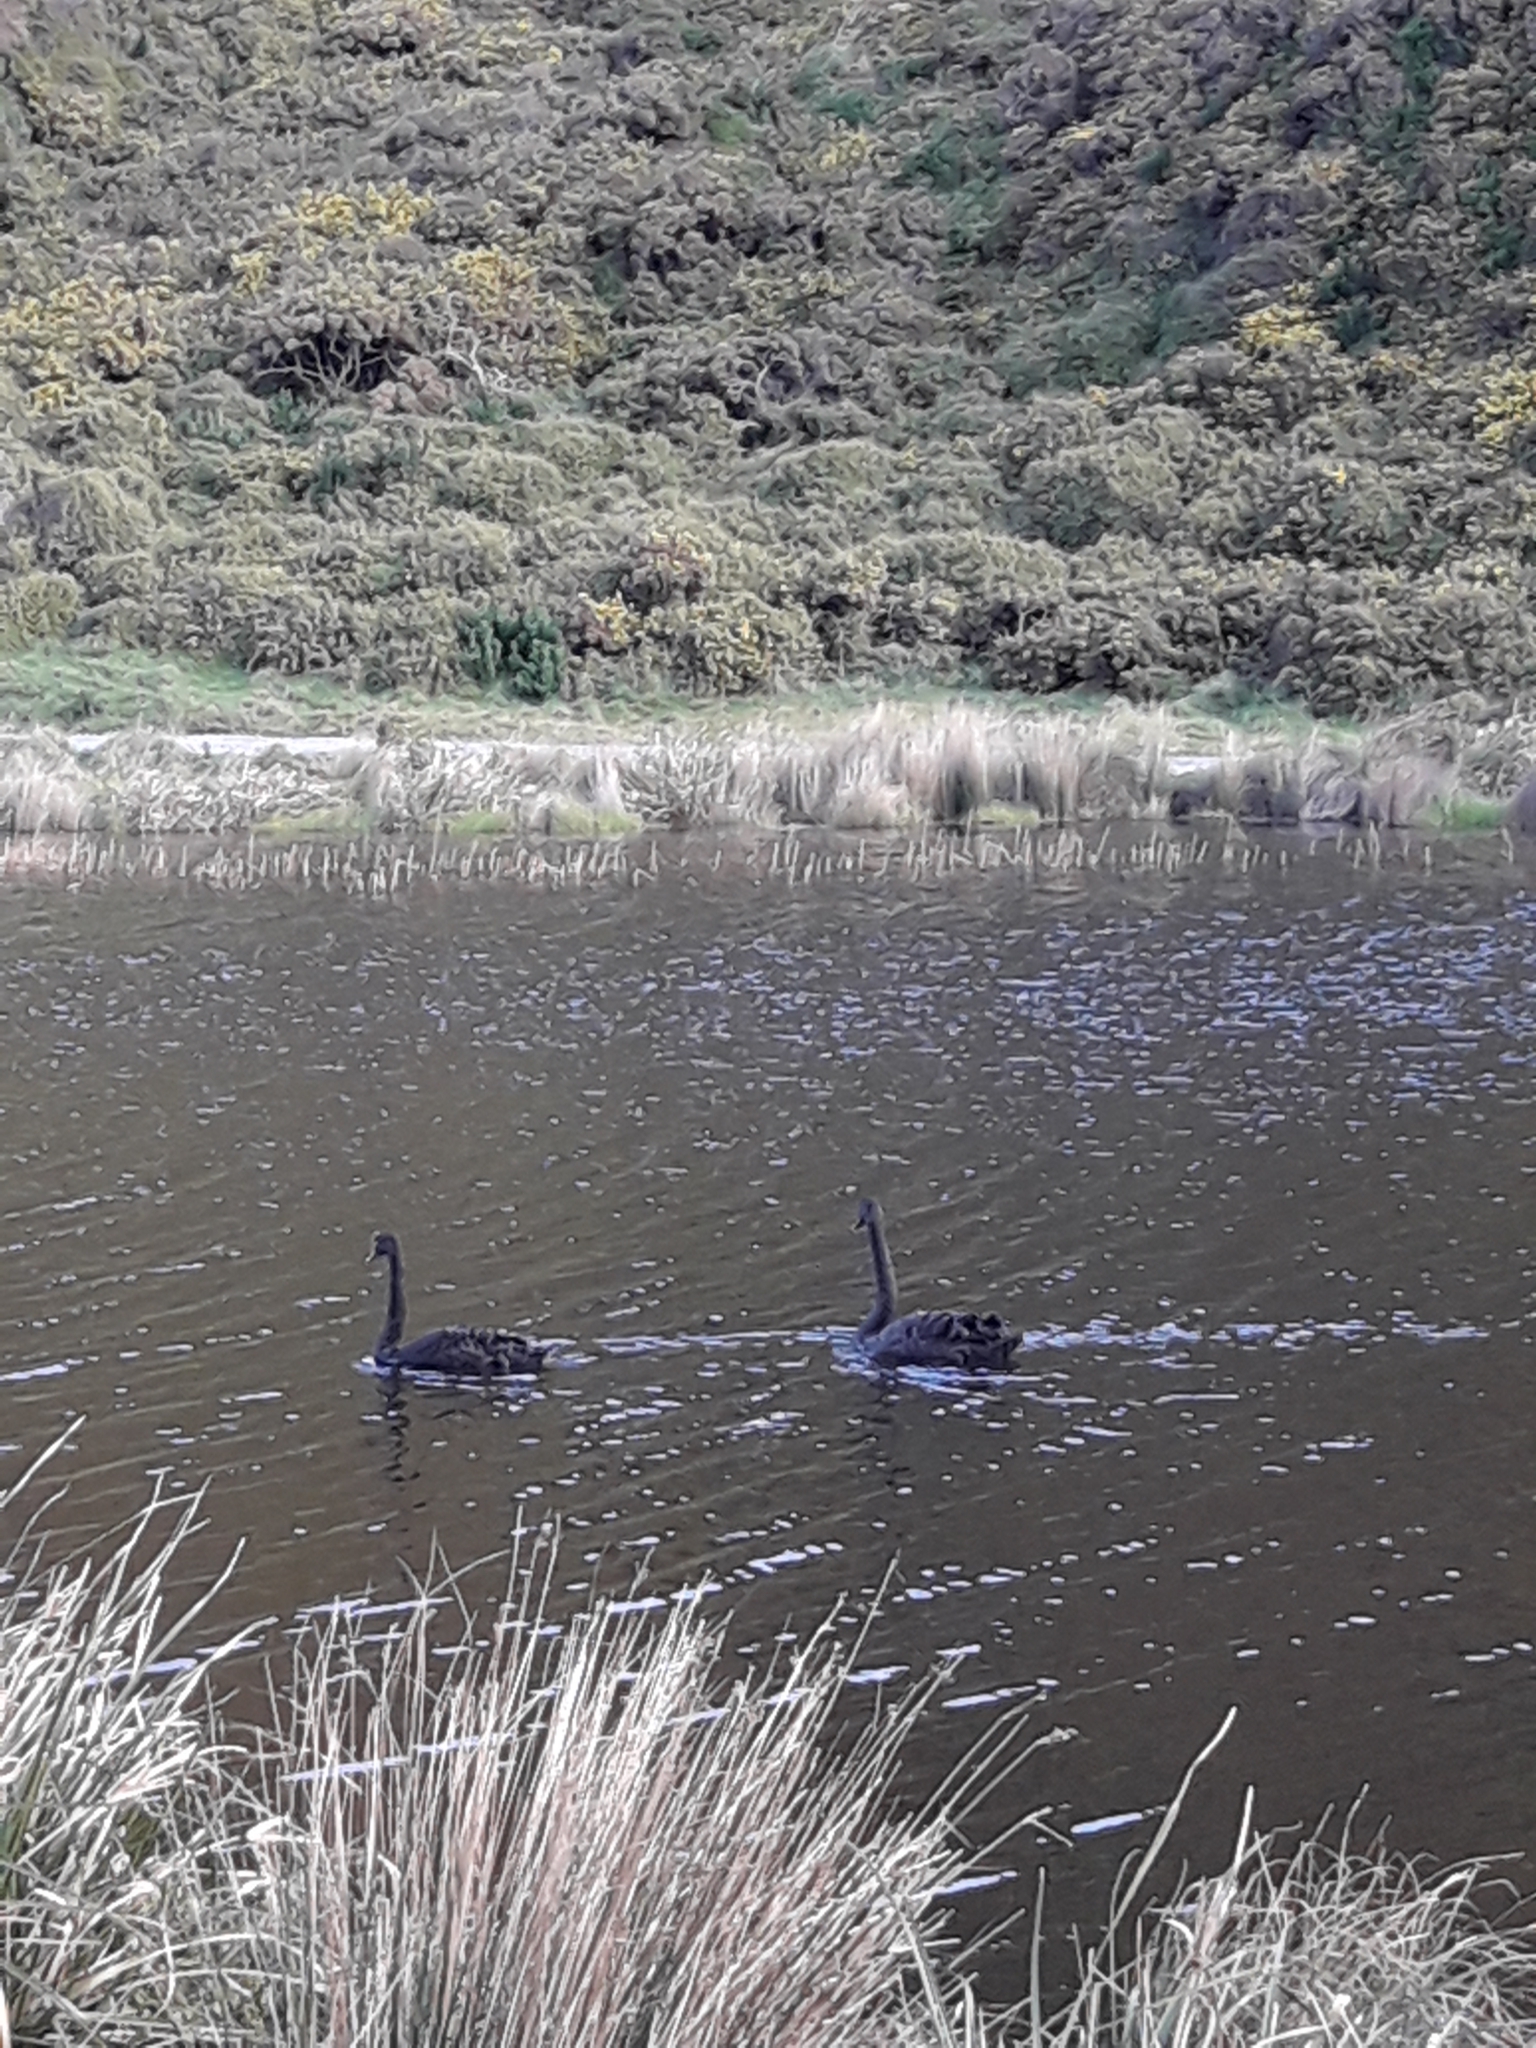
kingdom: Animalia
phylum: Chordata
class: Aves
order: Anseriformes
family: Anatidae
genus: Cygnus
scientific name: Cygnus atratus
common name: Black swan
